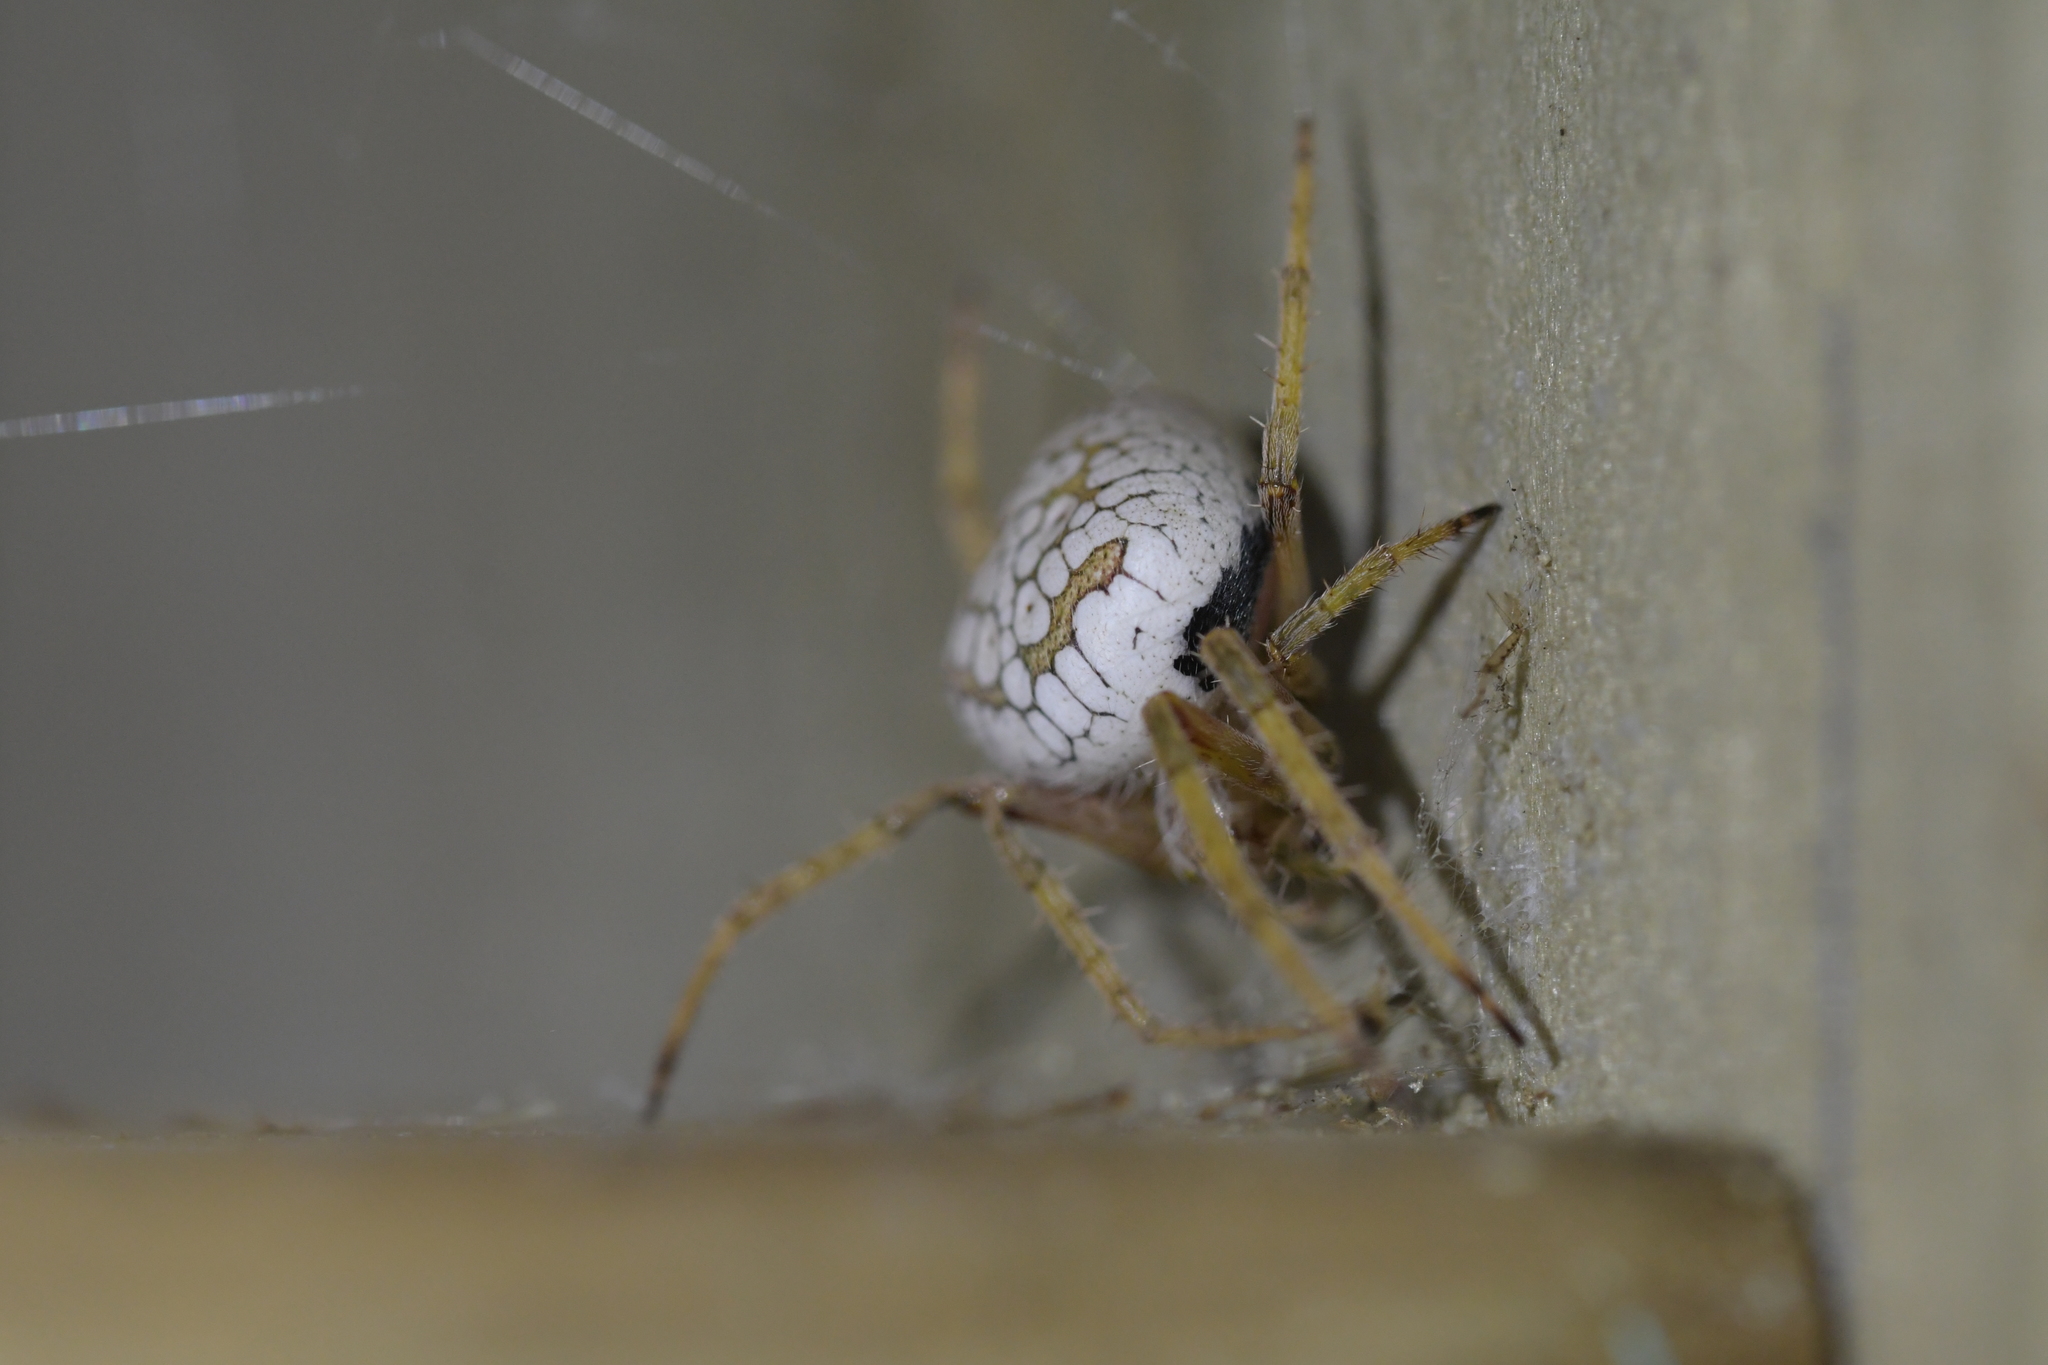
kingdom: Animalia
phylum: Arthropoda
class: Arachnida
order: Araneae
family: Araneidae
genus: Zealaranea
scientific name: Zealaranea crassa
